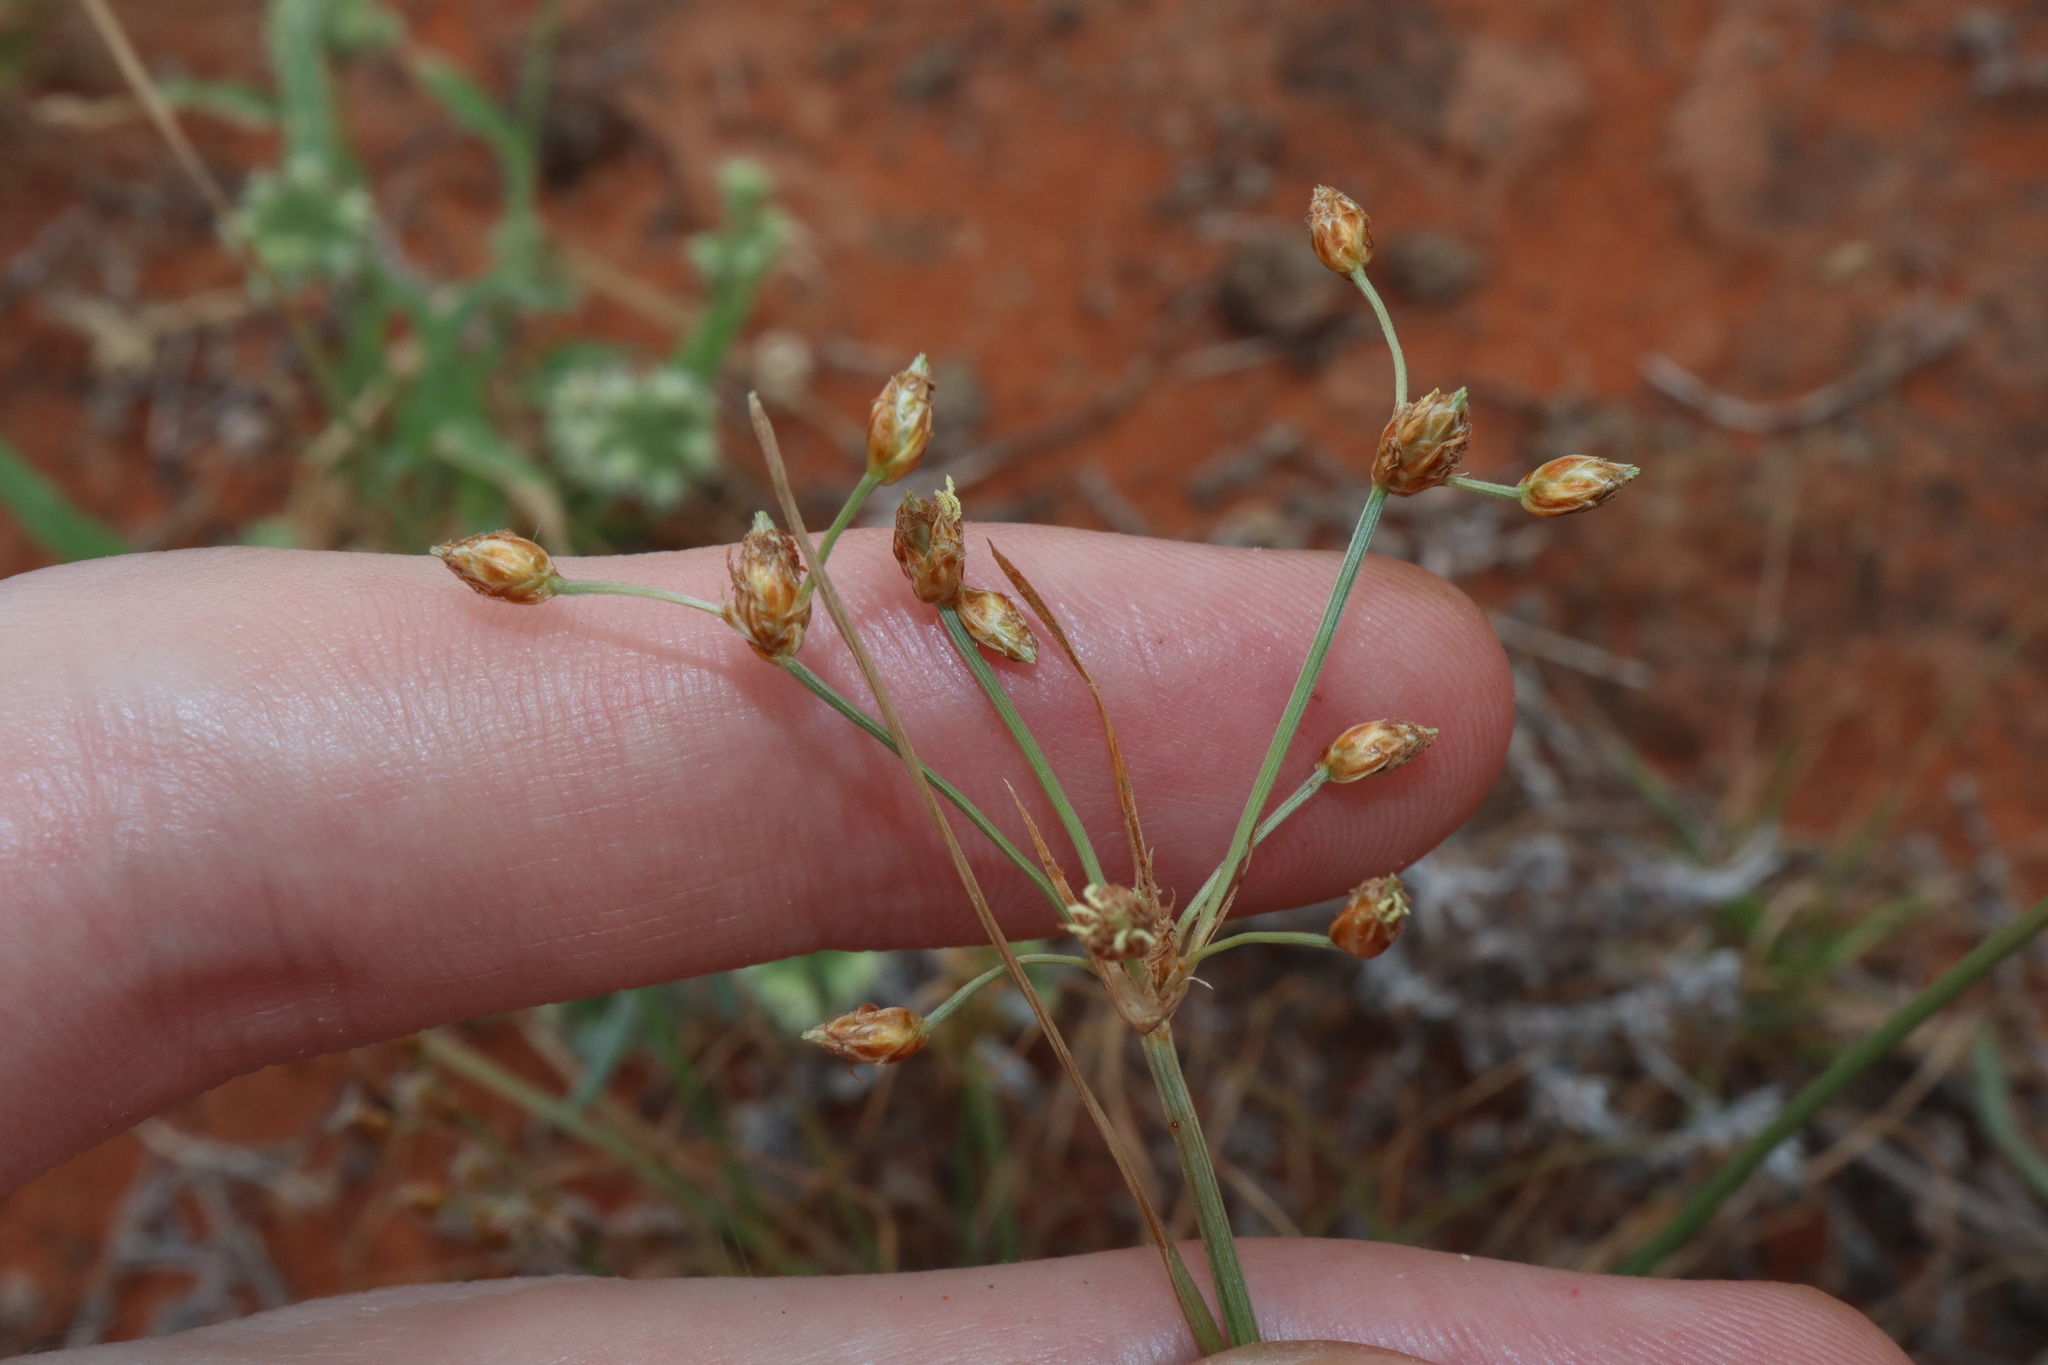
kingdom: Plantae
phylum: Tracheophyta
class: Liliopsida
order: Poales
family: Cyperaceae
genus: Fimbristylis
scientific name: Fimbristylis dichotoma
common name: Forked fimbry
